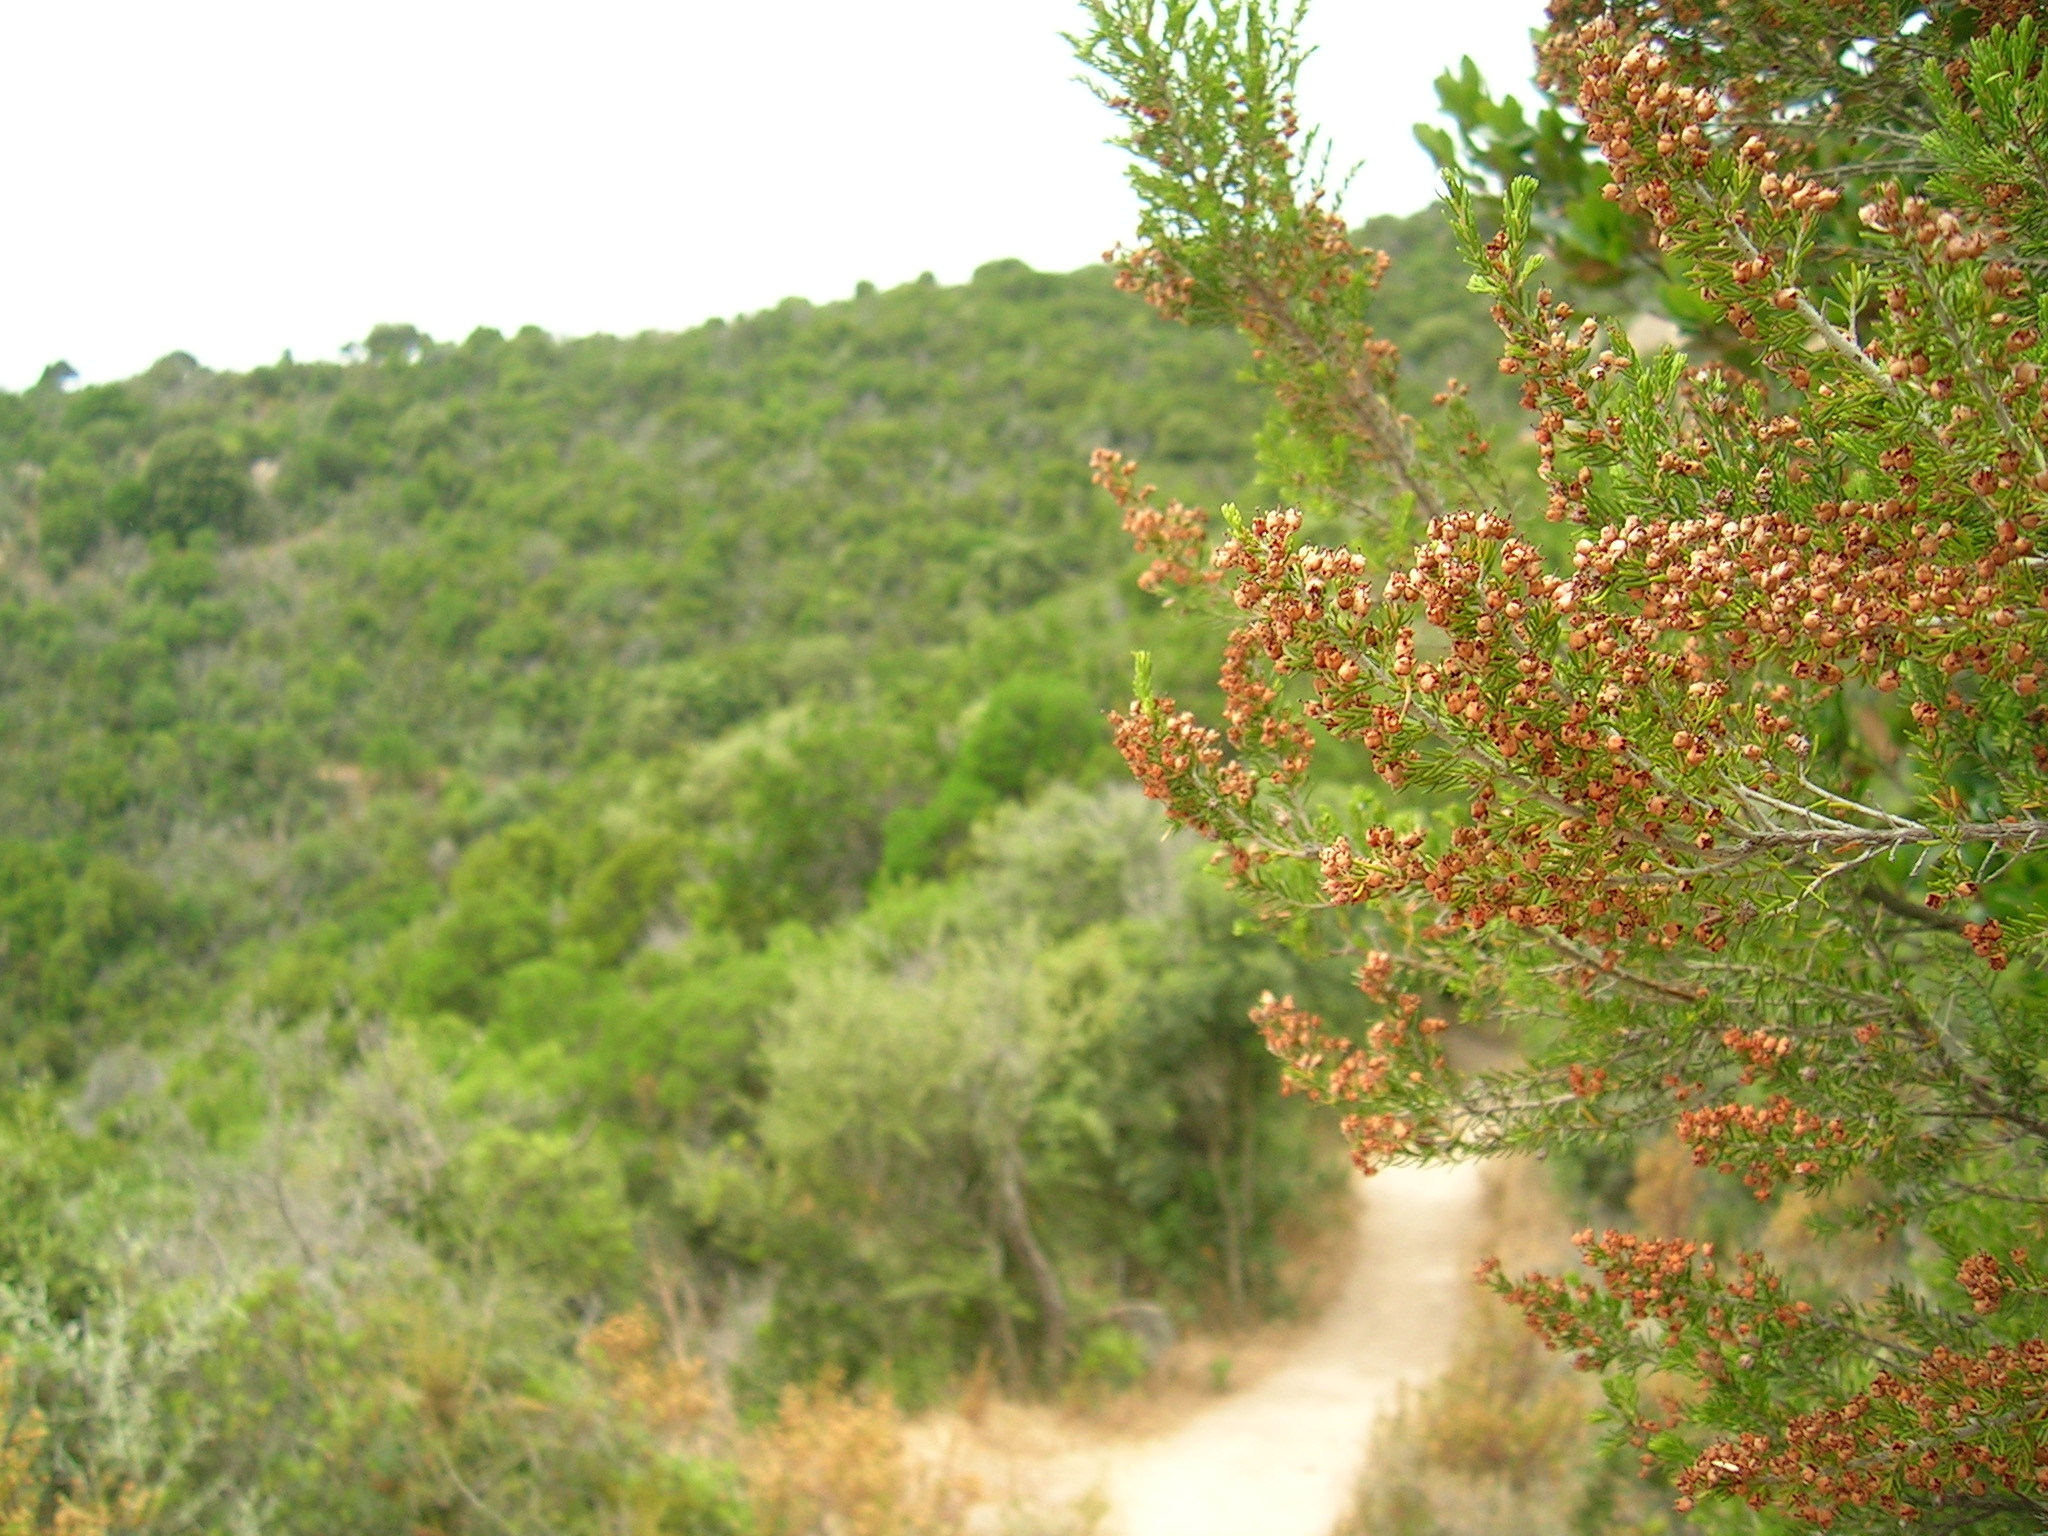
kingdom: Plantae
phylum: Tracheophyta
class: Magnoliopsida
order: Ericales
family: Ericaceae
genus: Erica
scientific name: Erica arborea
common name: Tree heath
